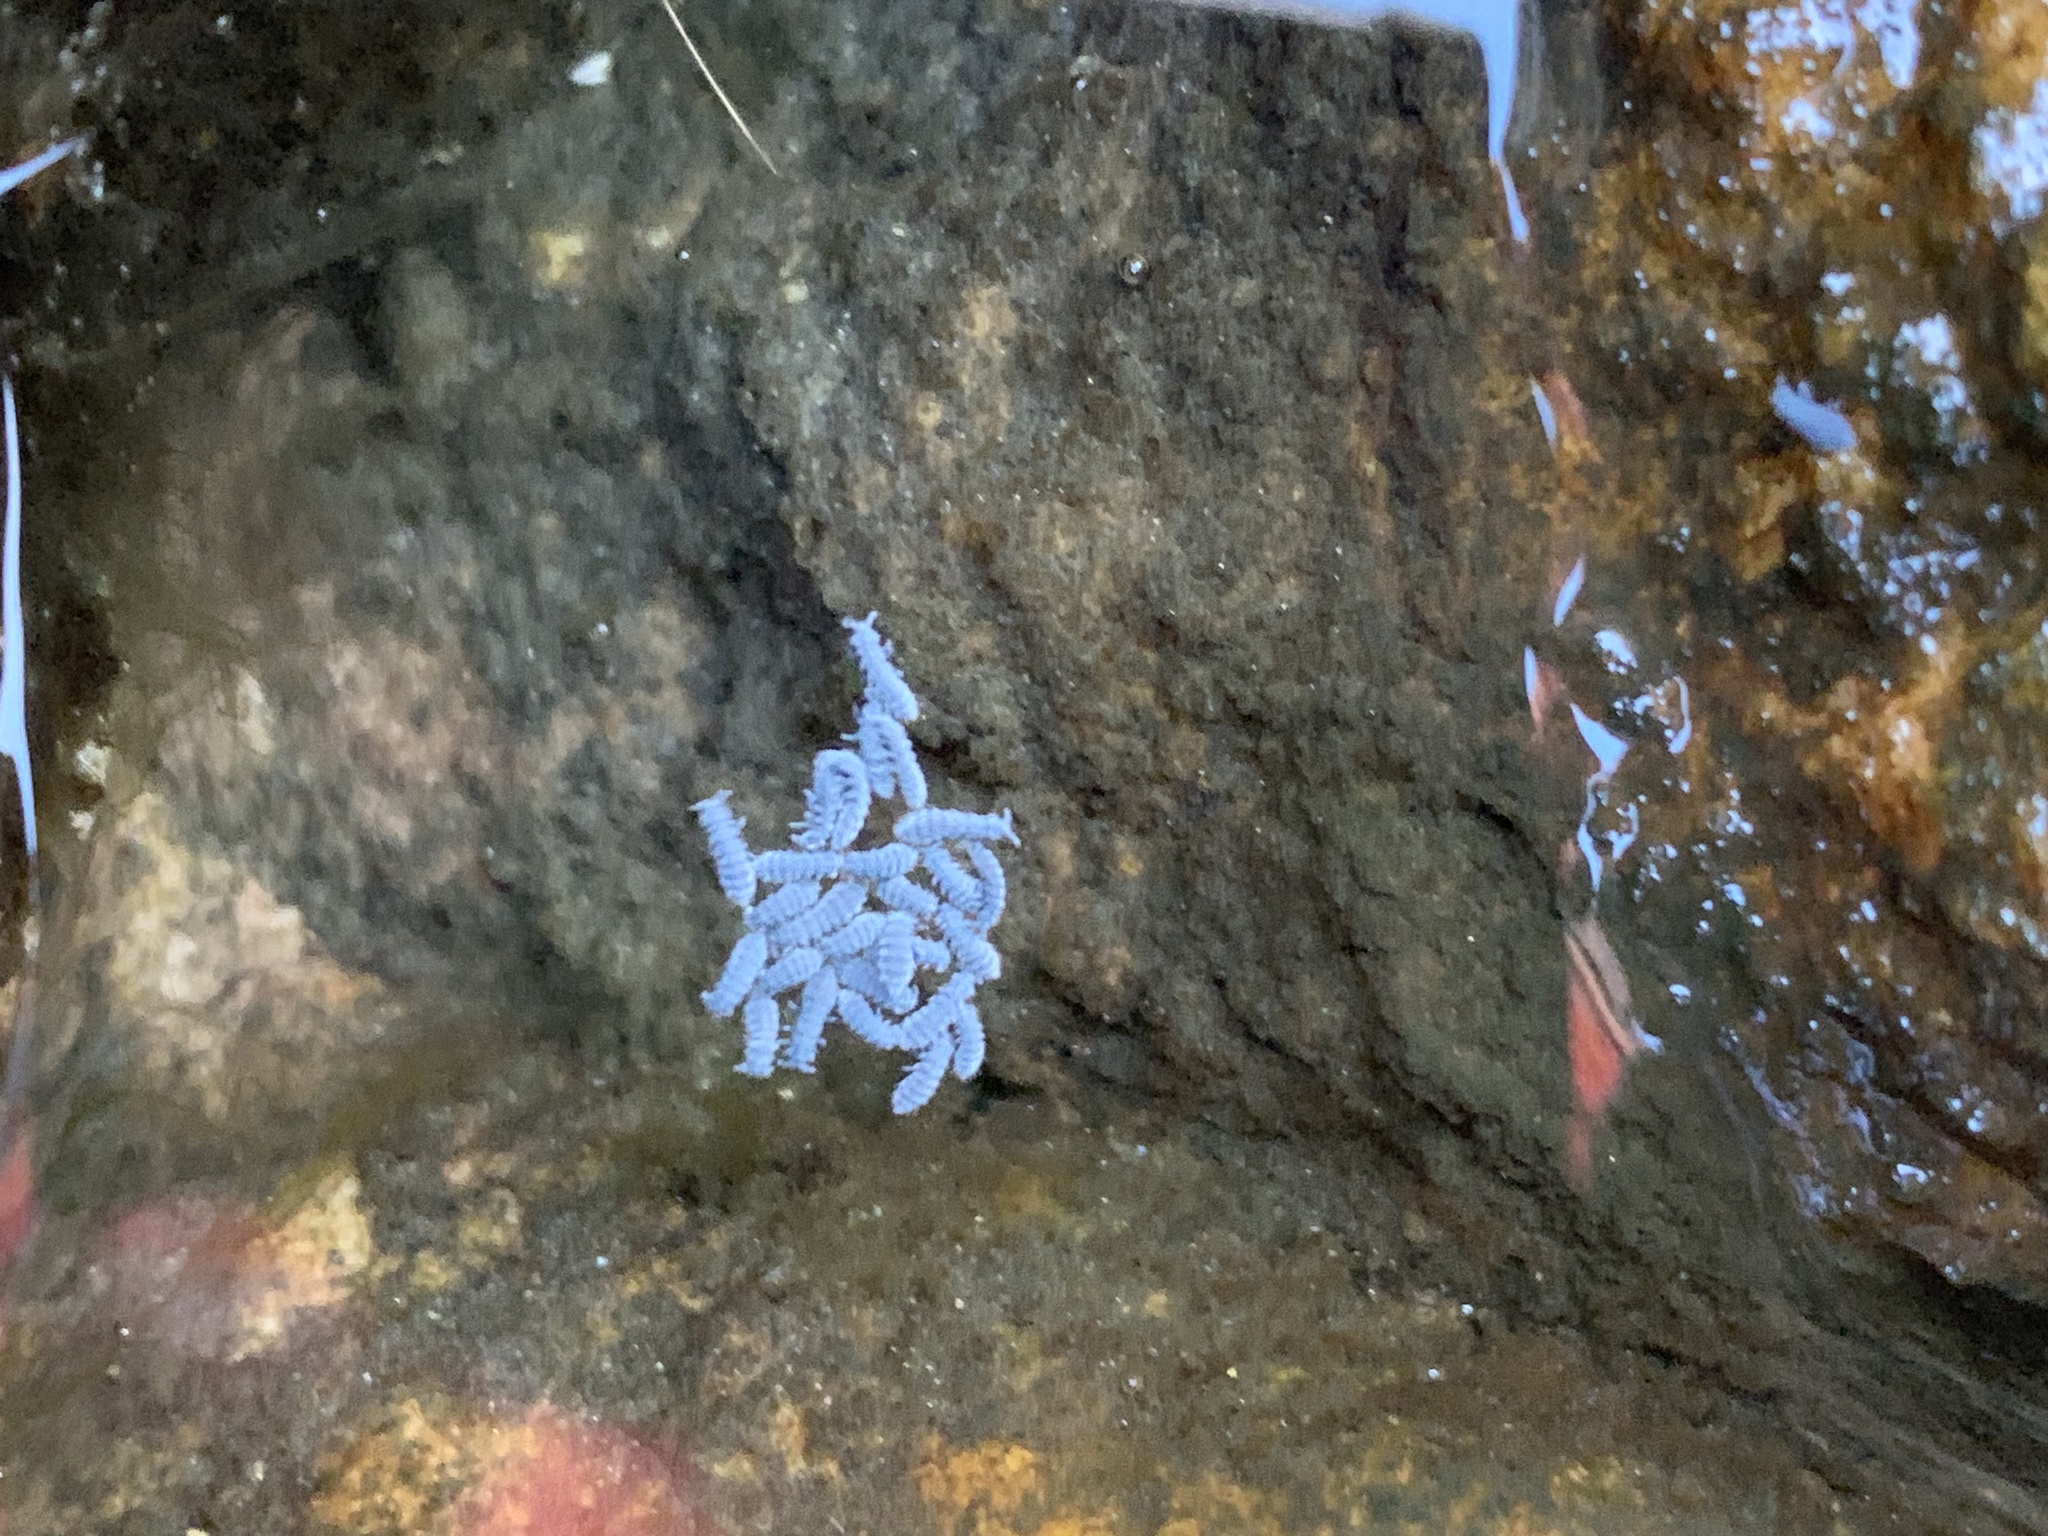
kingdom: Animalia
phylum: Arthropoda
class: Collembola
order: Poduromorpha
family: Neanuridae
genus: Anurida
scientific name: Anurida maritima
